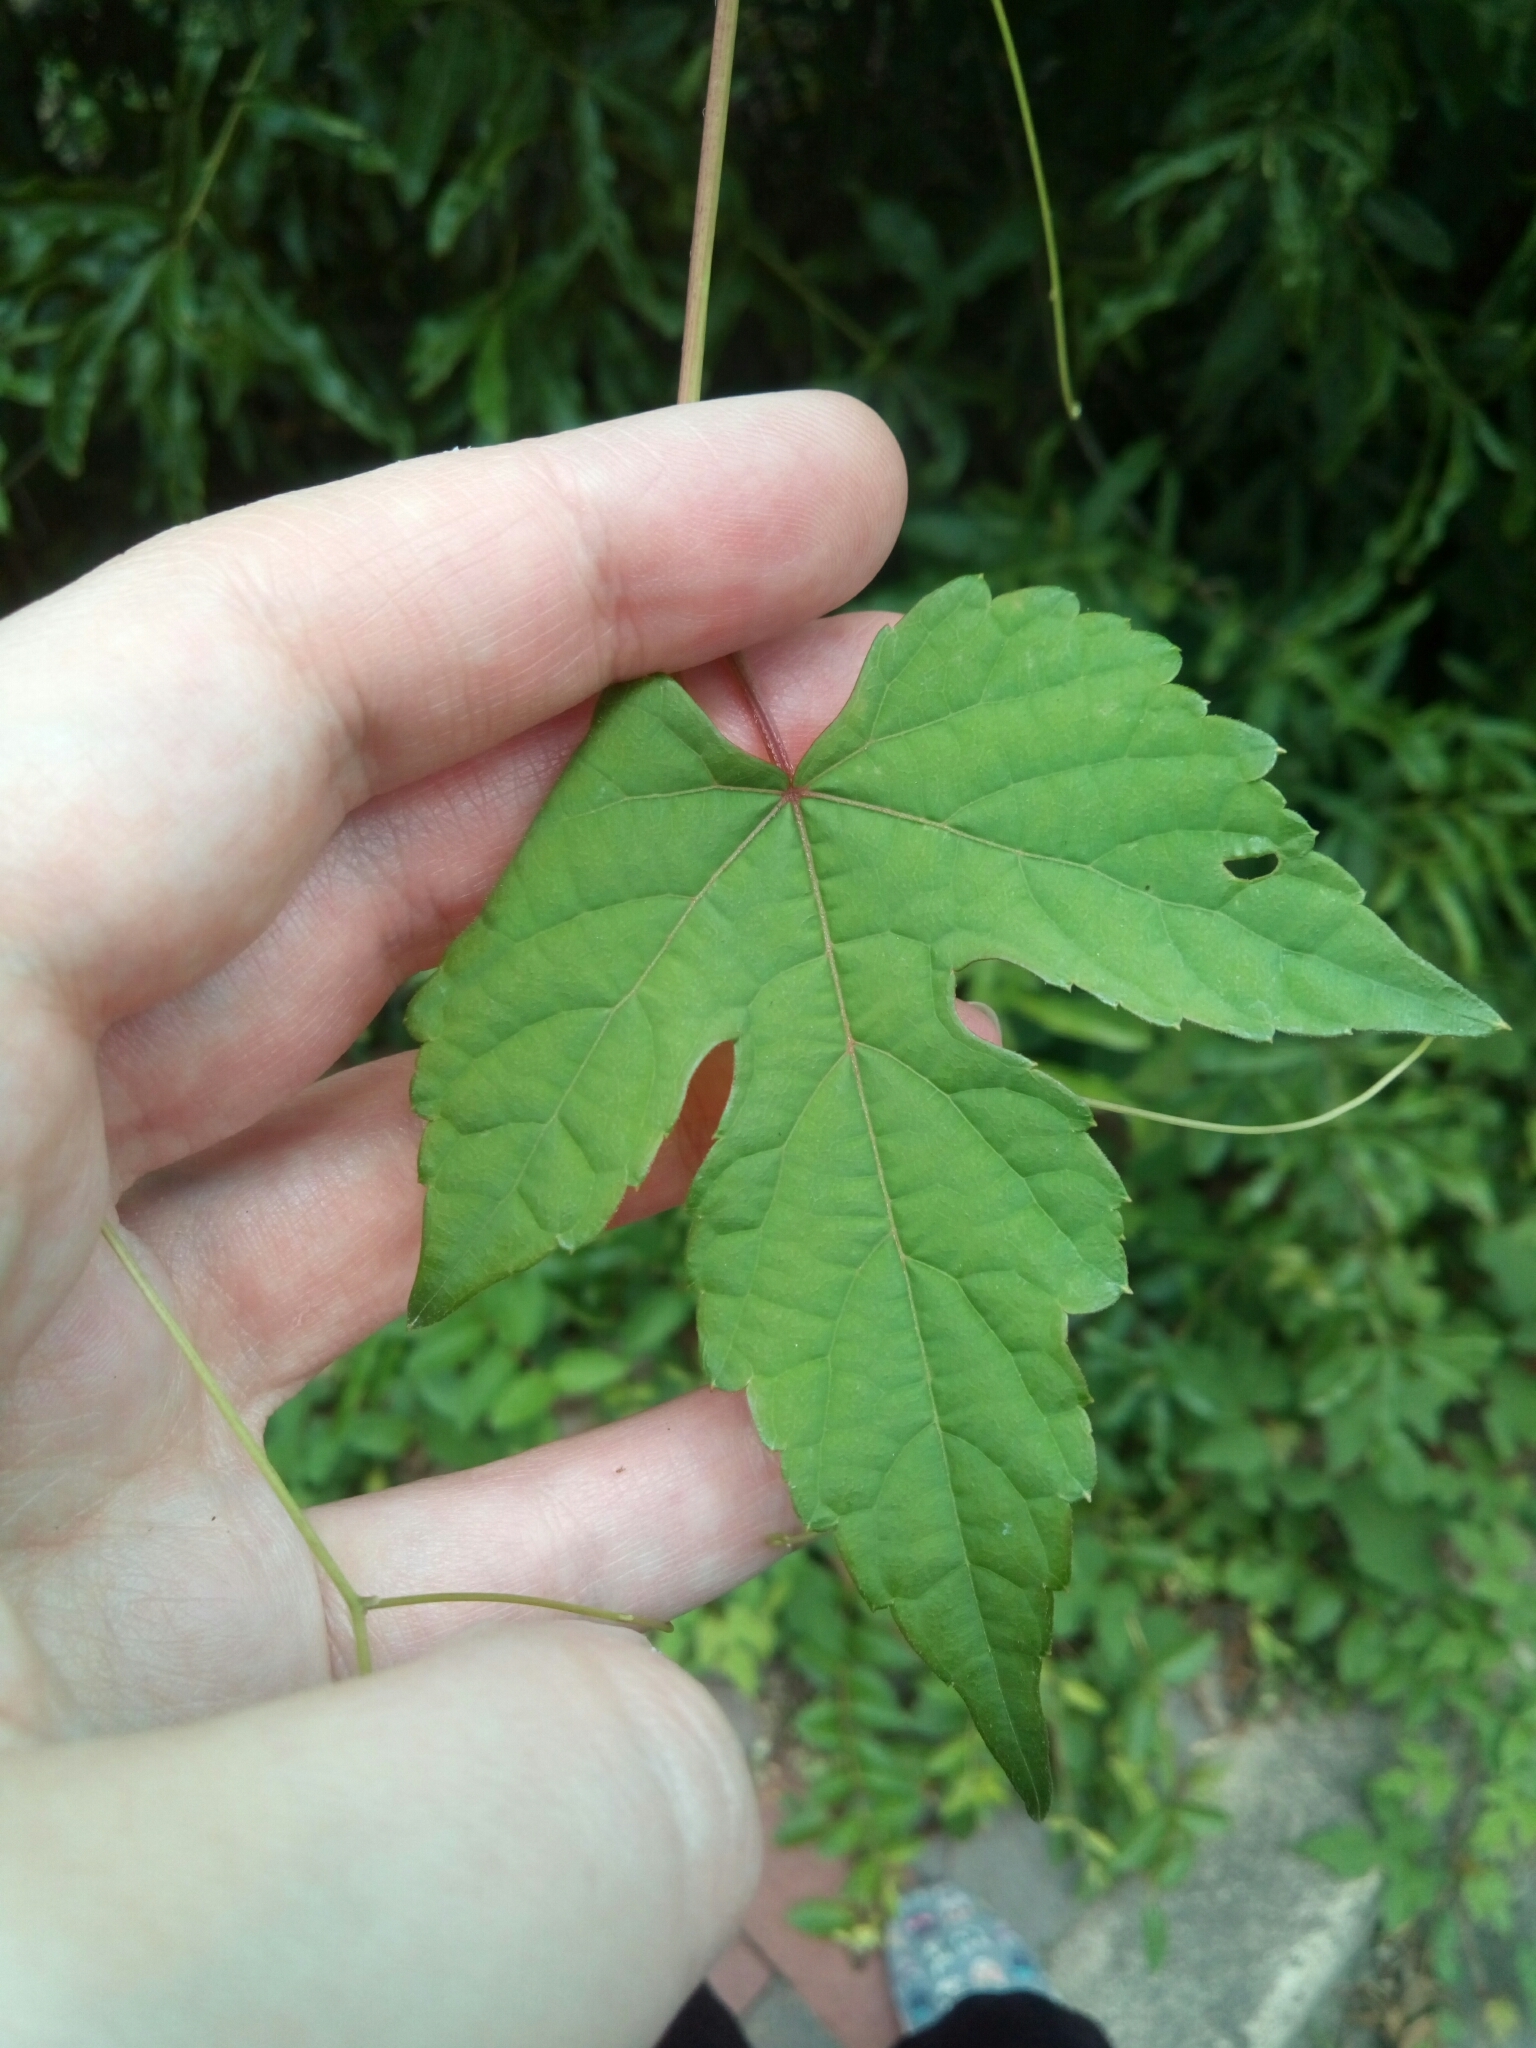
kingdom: Plantae
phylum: Tracheophyta
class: Magnoliopsida
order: Vitales
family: Vitaceae
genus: Ampelopsis
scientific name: Ampelopsis glandulosa
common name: Amur peppervine
